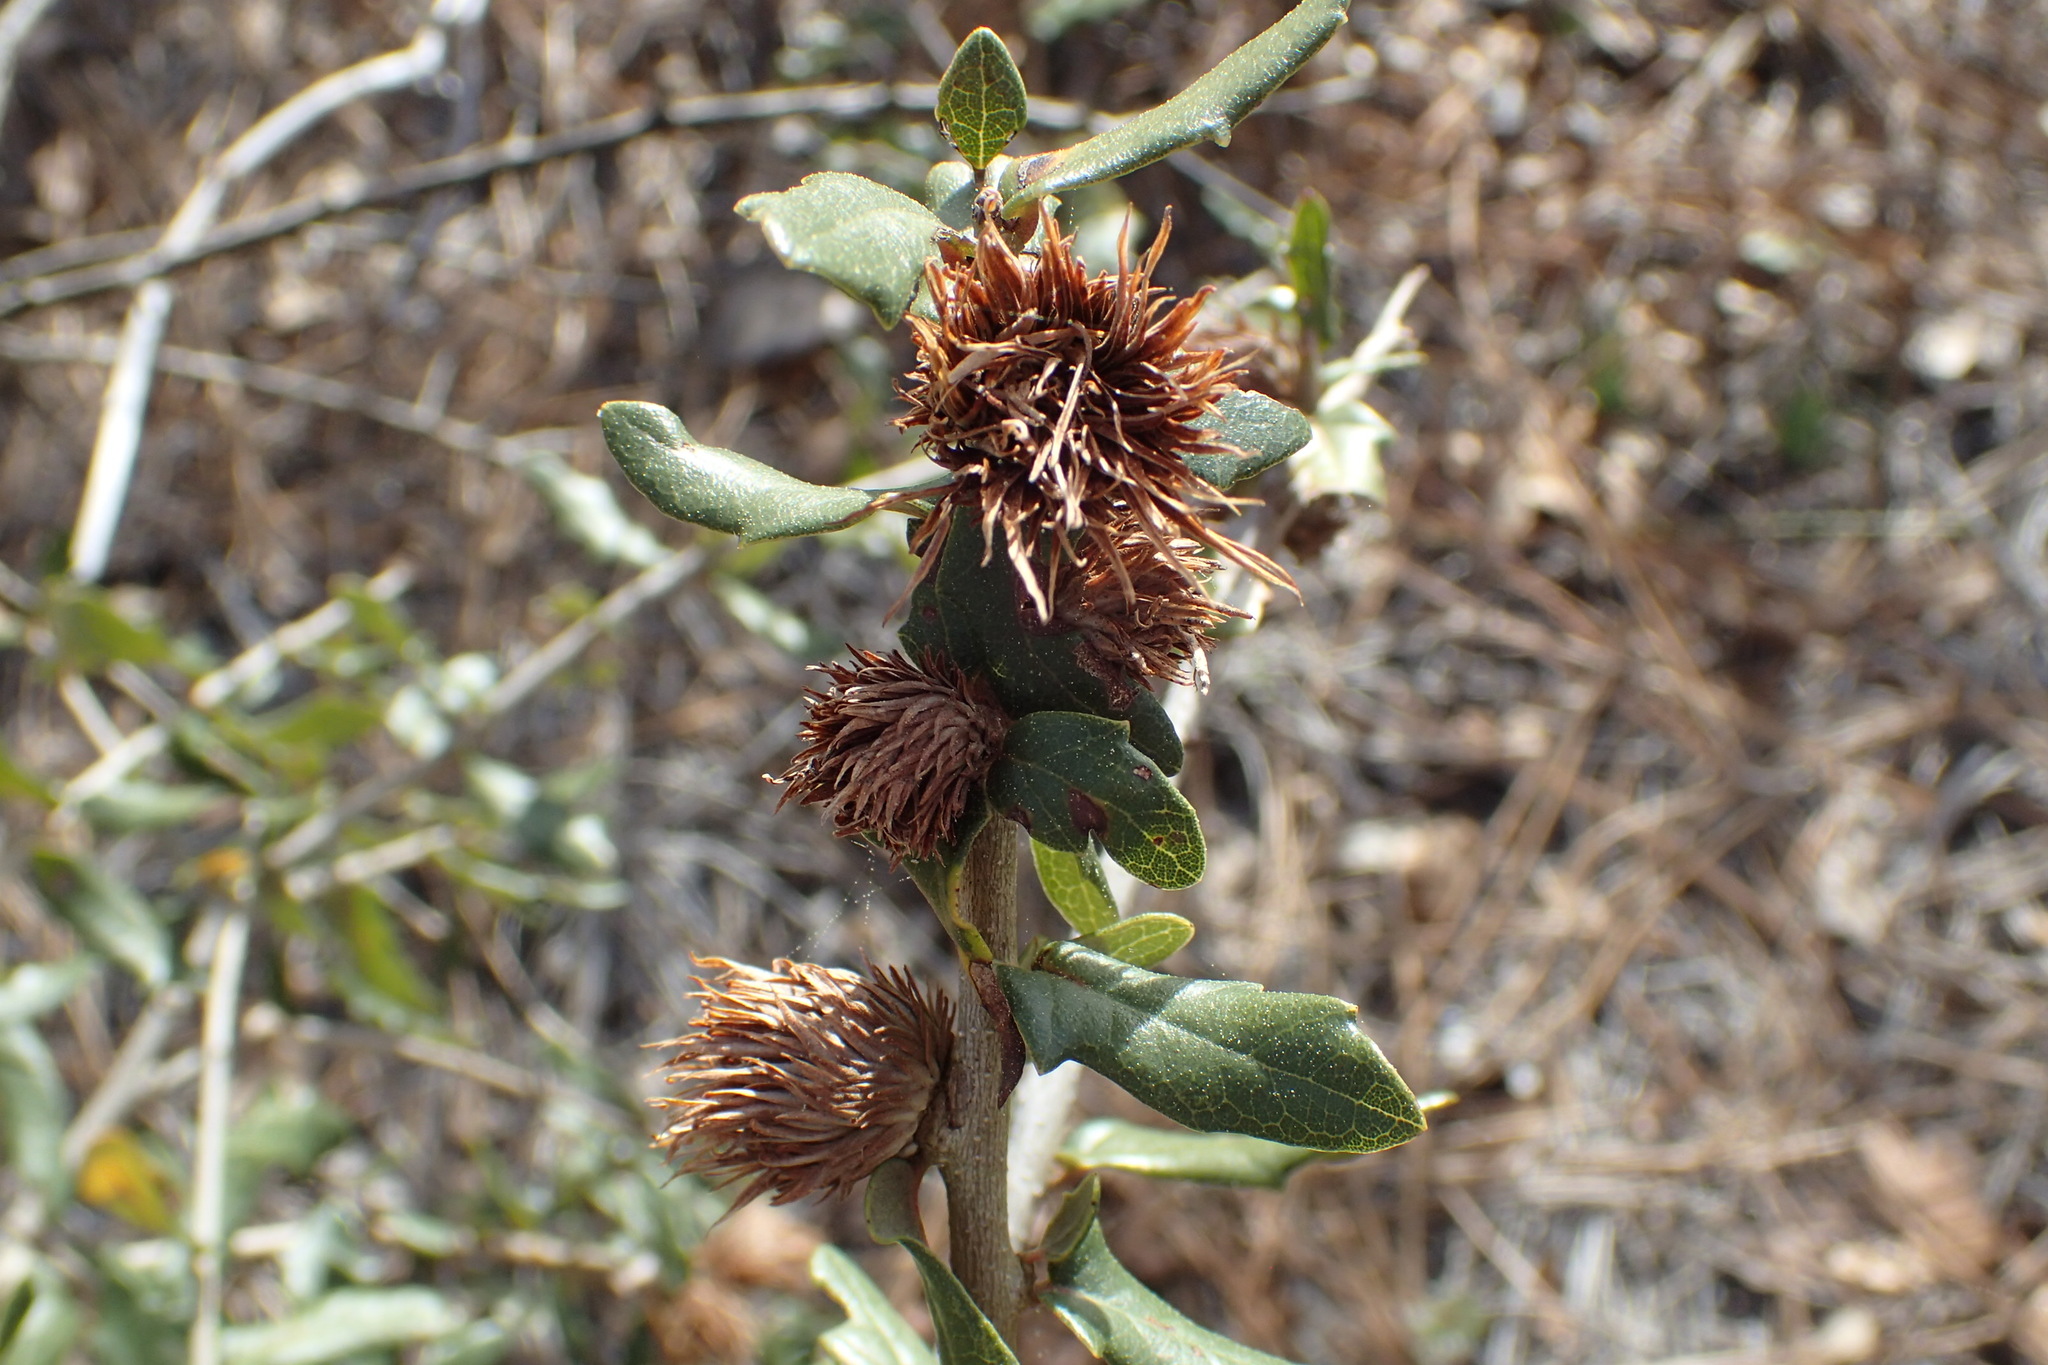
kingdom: Animalia
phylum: Arthropoda
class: Insecta
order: Hymenoptera
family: Cynipidae
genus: Andricus
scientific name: Andricus quercusfoliatus
